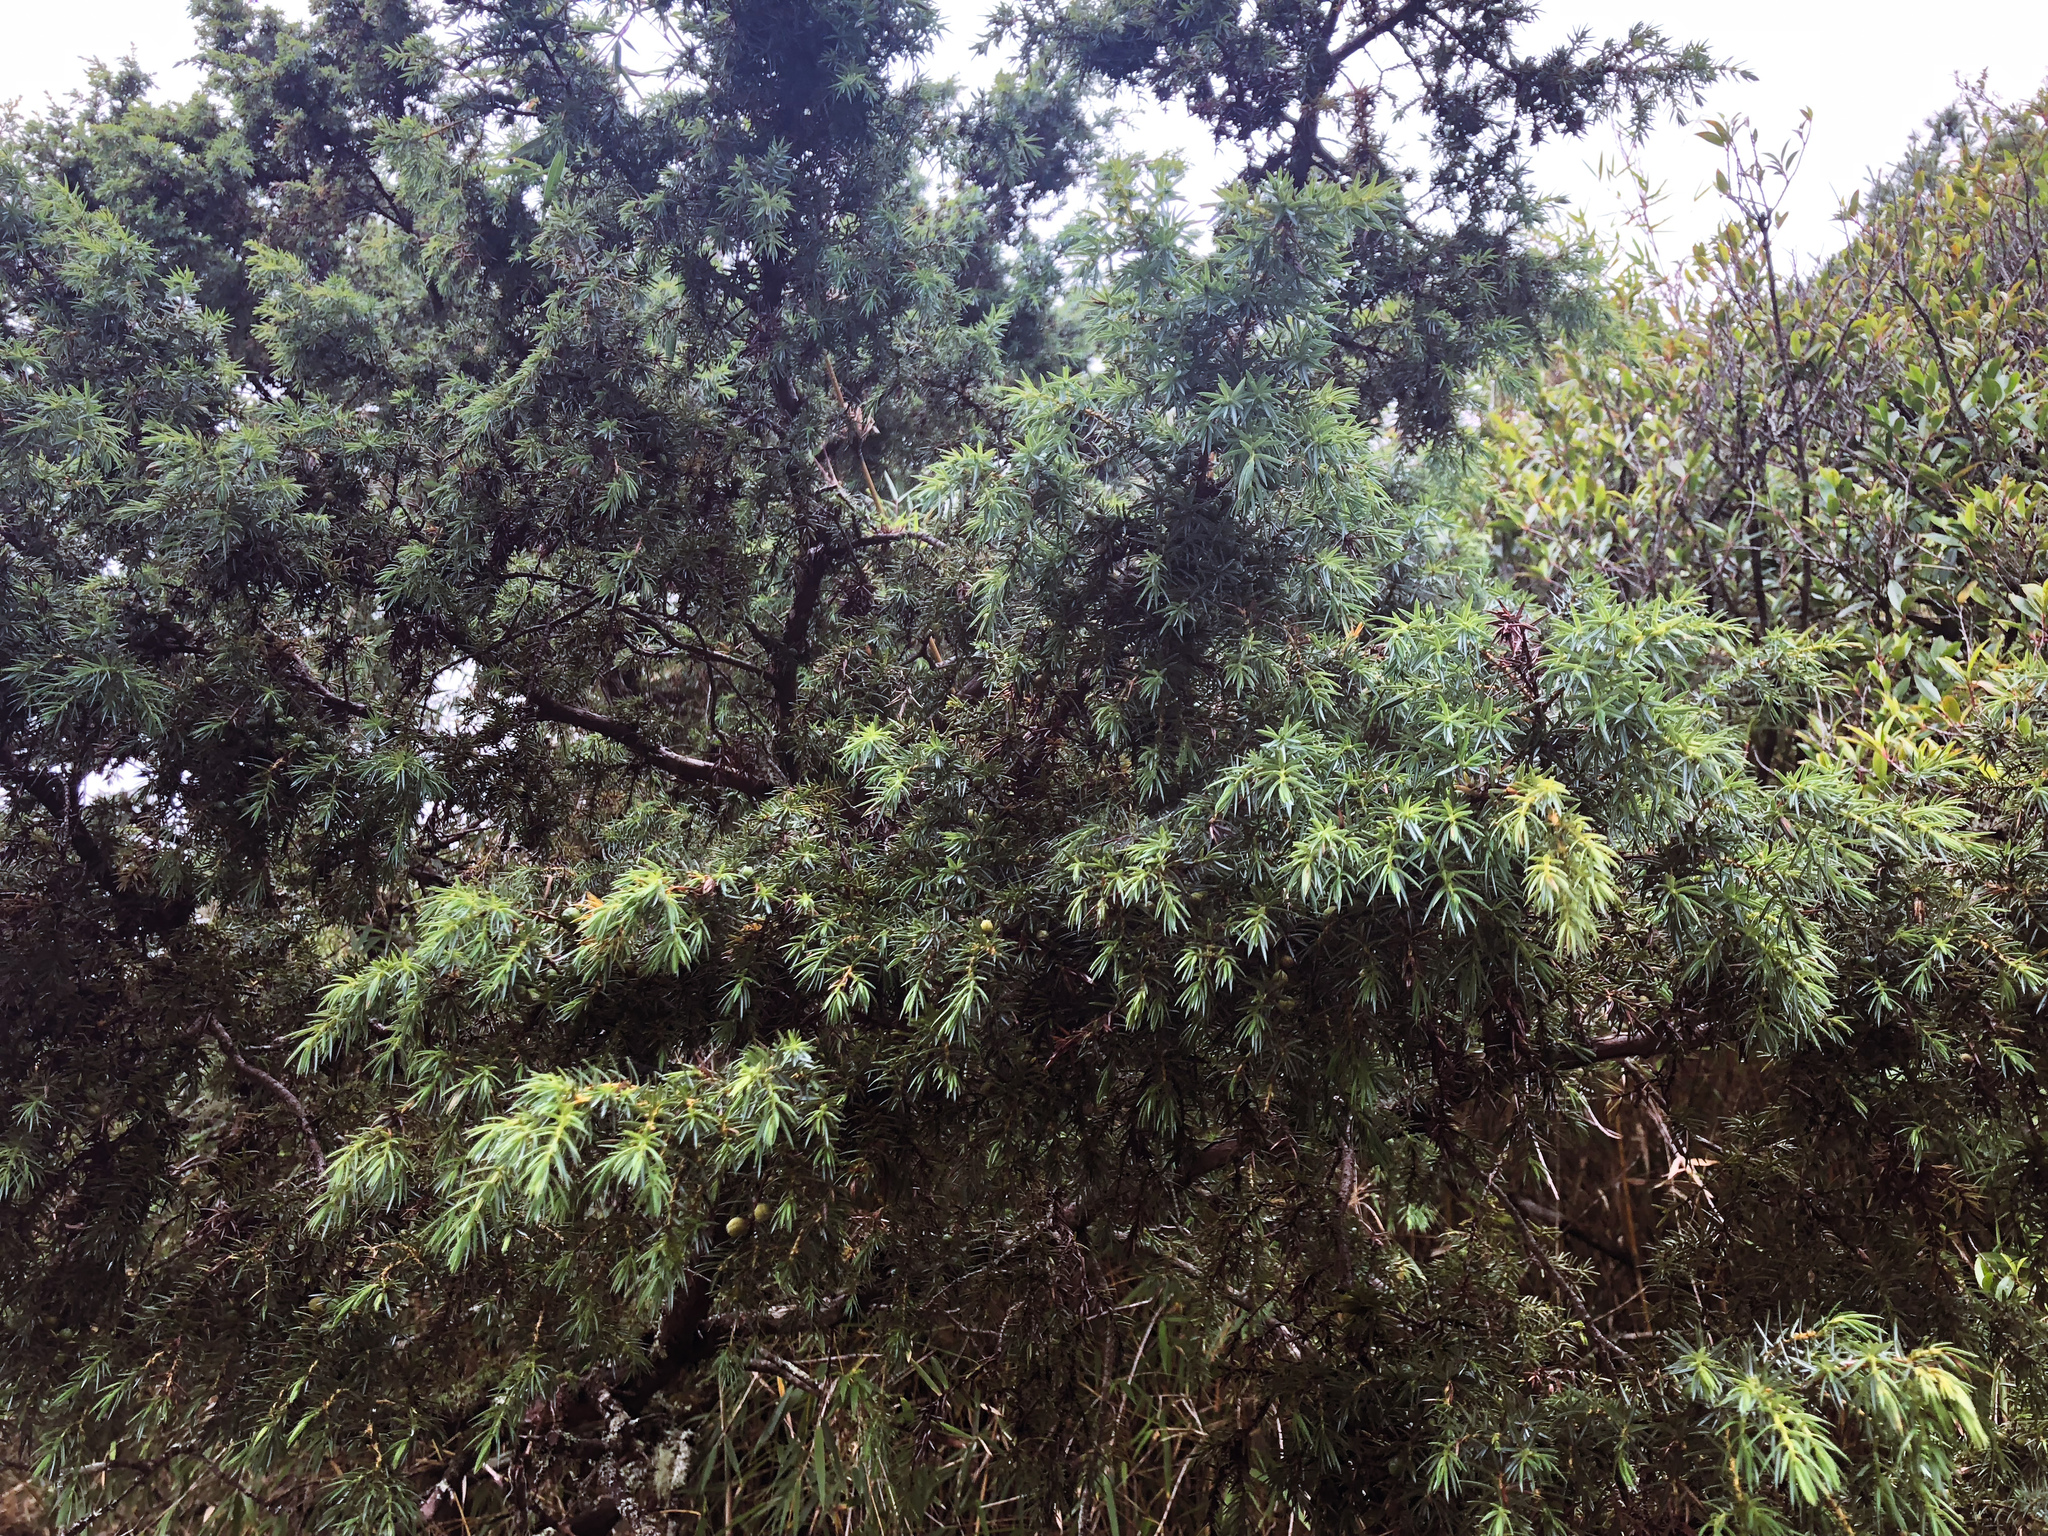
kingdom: Plantae
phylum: Tracheophyta
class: Pinopsida
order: Pinales
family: Cupressaceae
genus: Juniperus
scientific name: Juniperus formosana
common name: Formosan juniper
